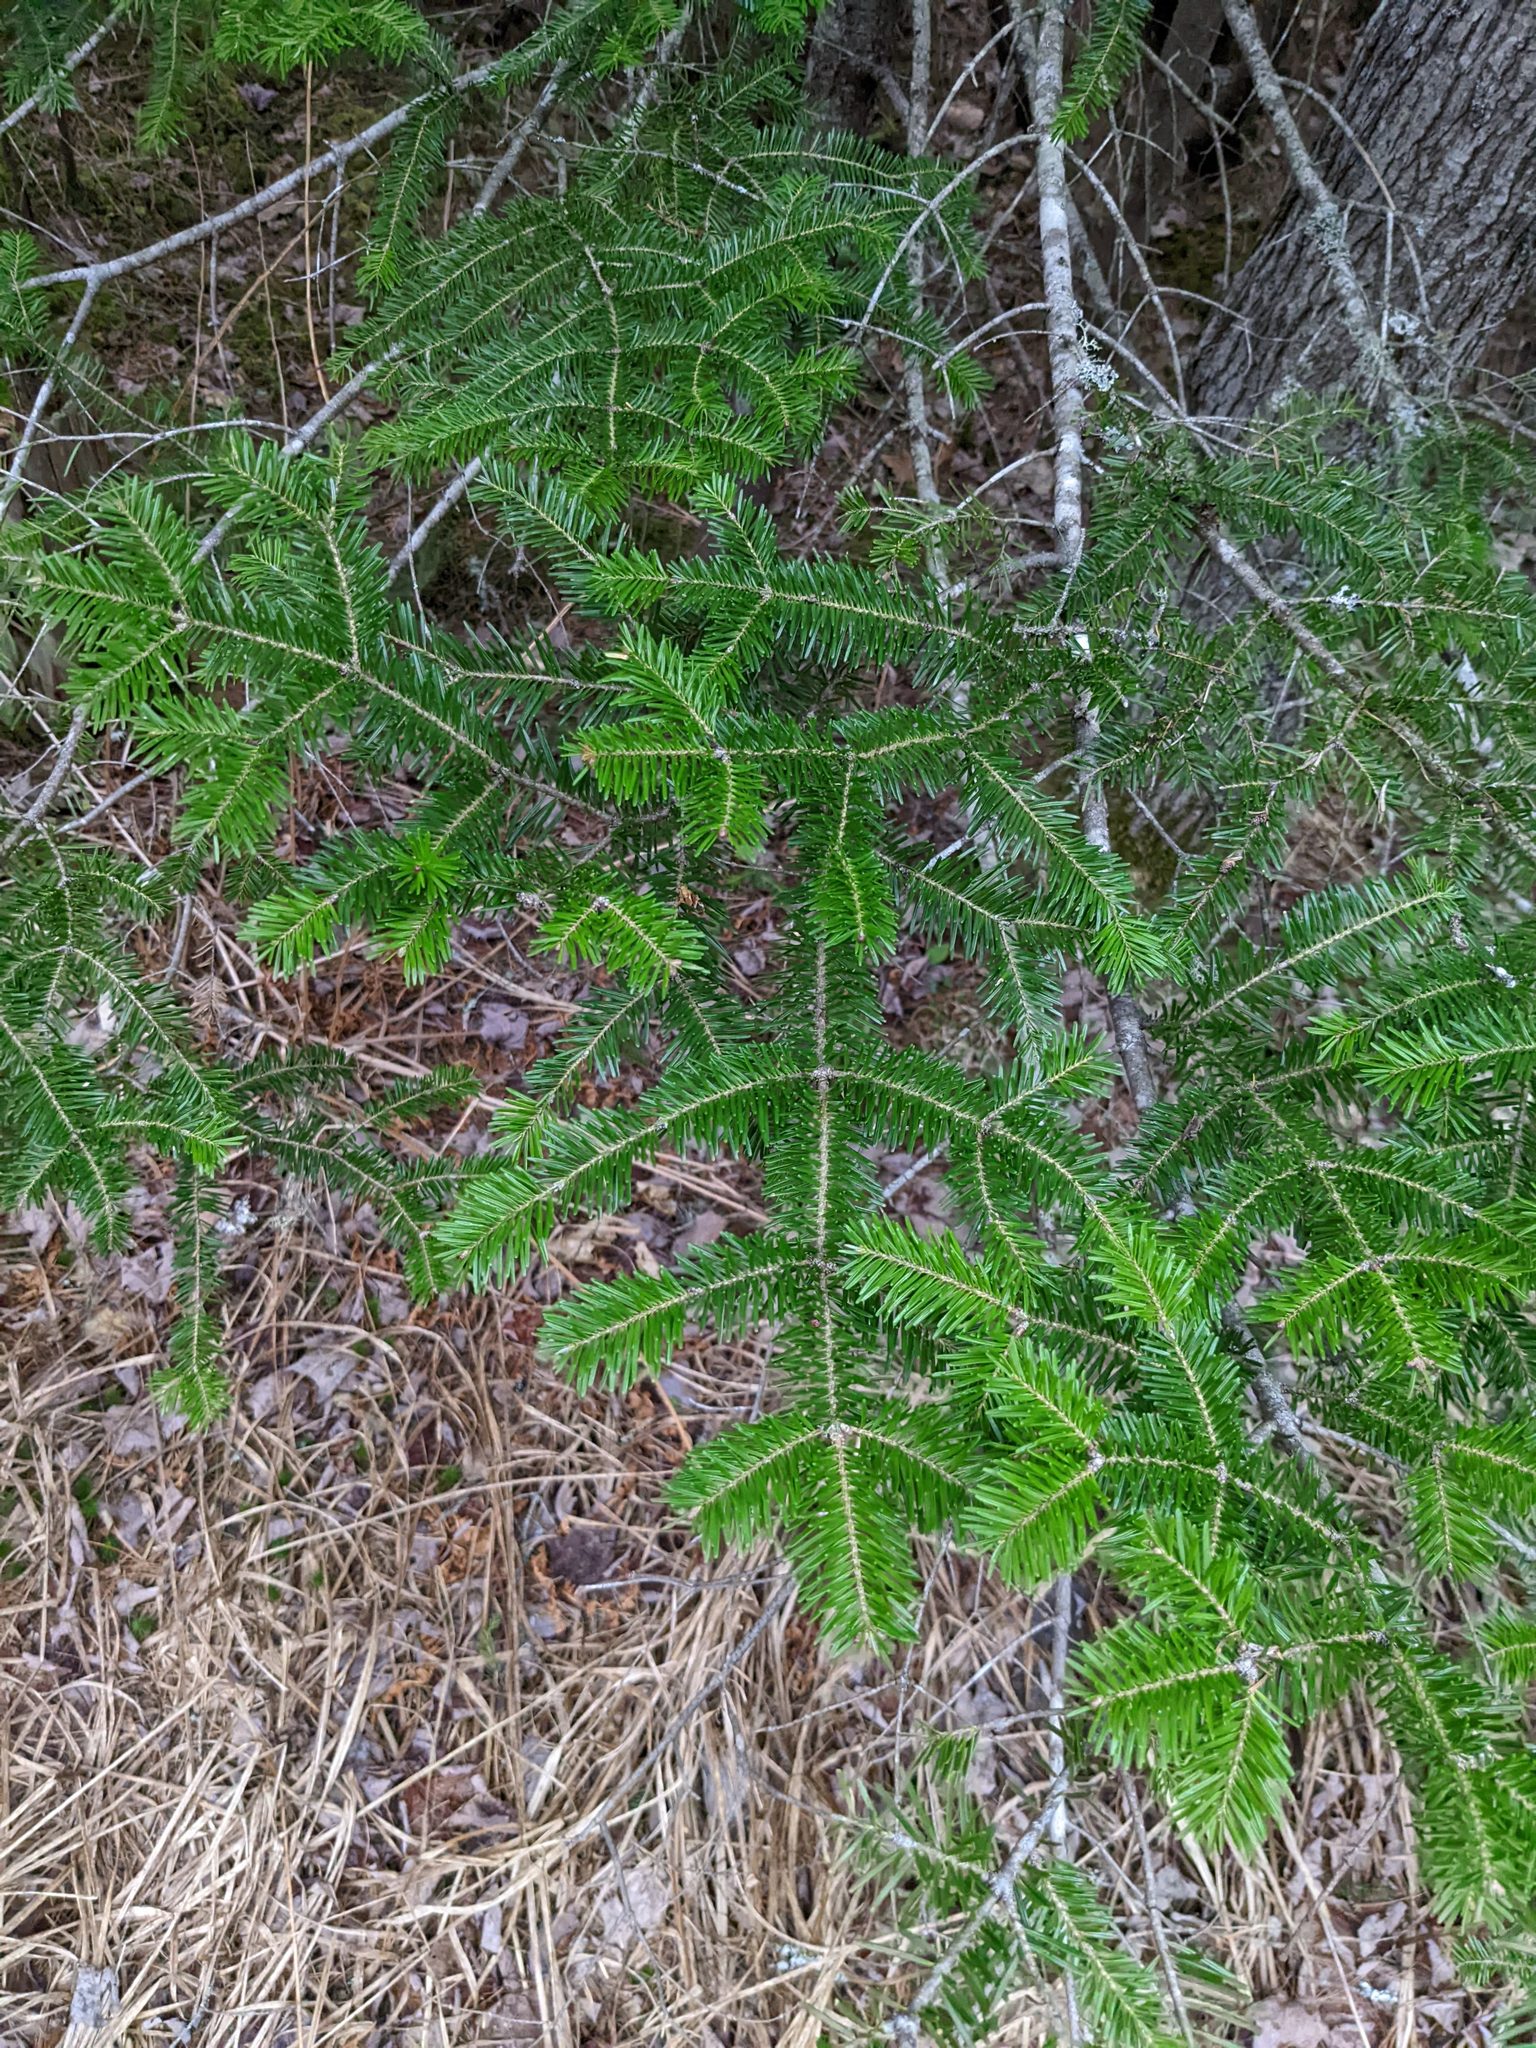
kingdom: Plantae
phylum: Tracheophyta
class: Pinopsida
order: Pinales
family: Pinaceae
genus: Abies
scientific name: Abies balsamea
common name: Balsam fir
